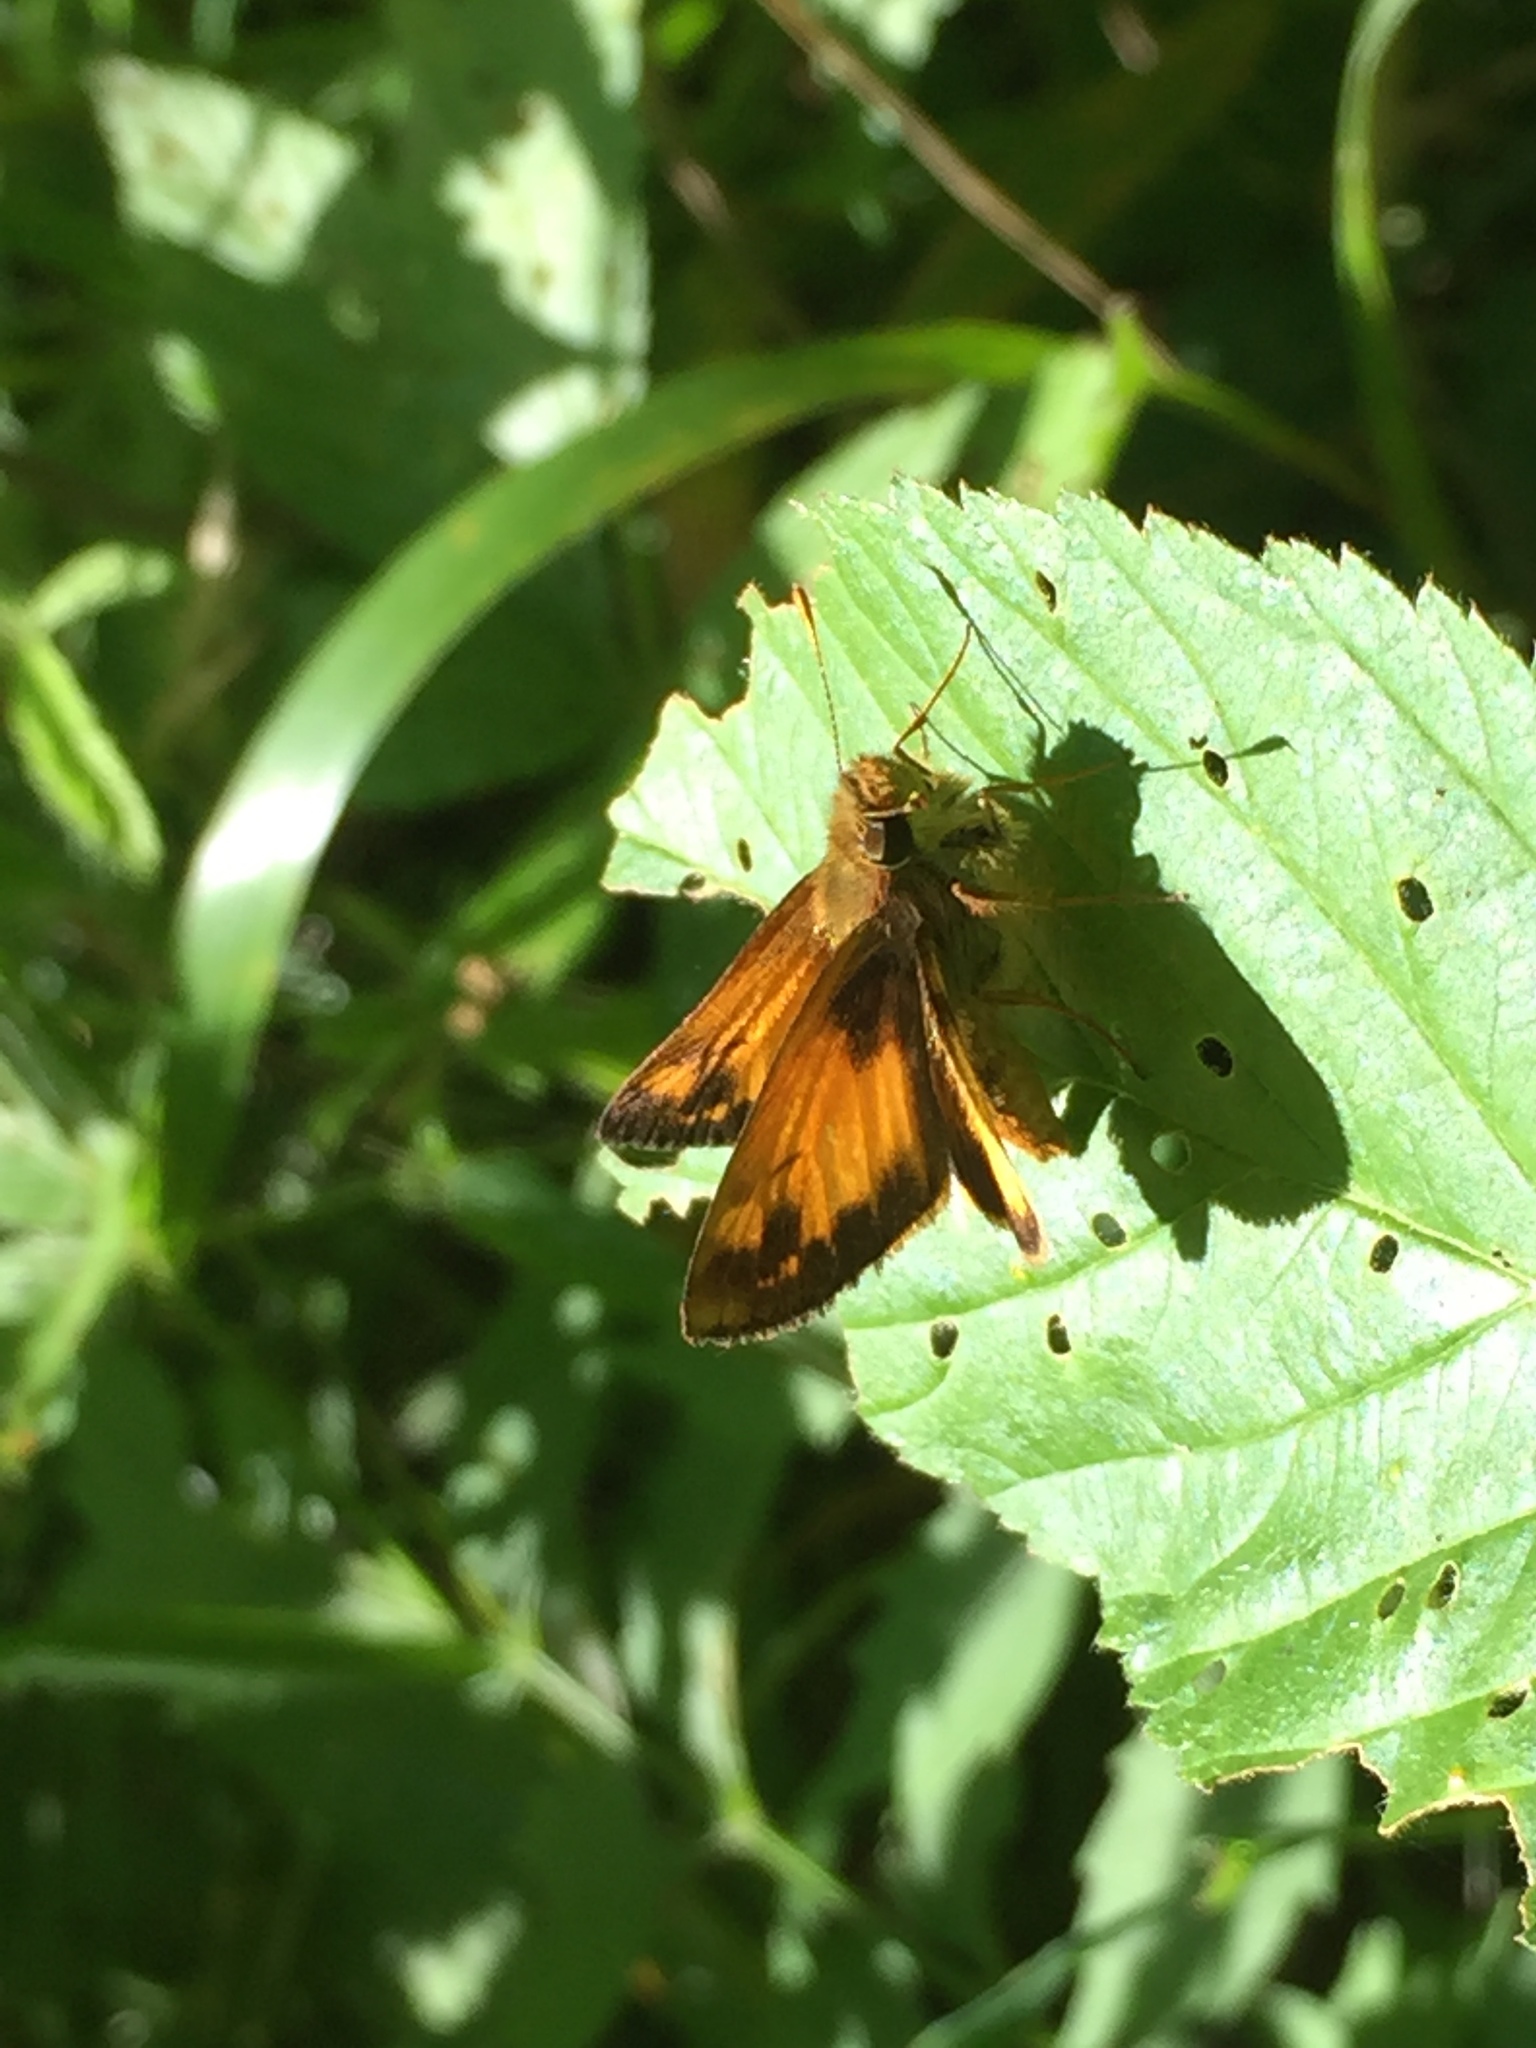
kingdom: Animalia
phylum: Arthropoda
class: Insecta
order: Lepidoptera
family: Hesperiidae
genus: Lon
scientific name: Lon zabulon
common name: Zabulon skipper
